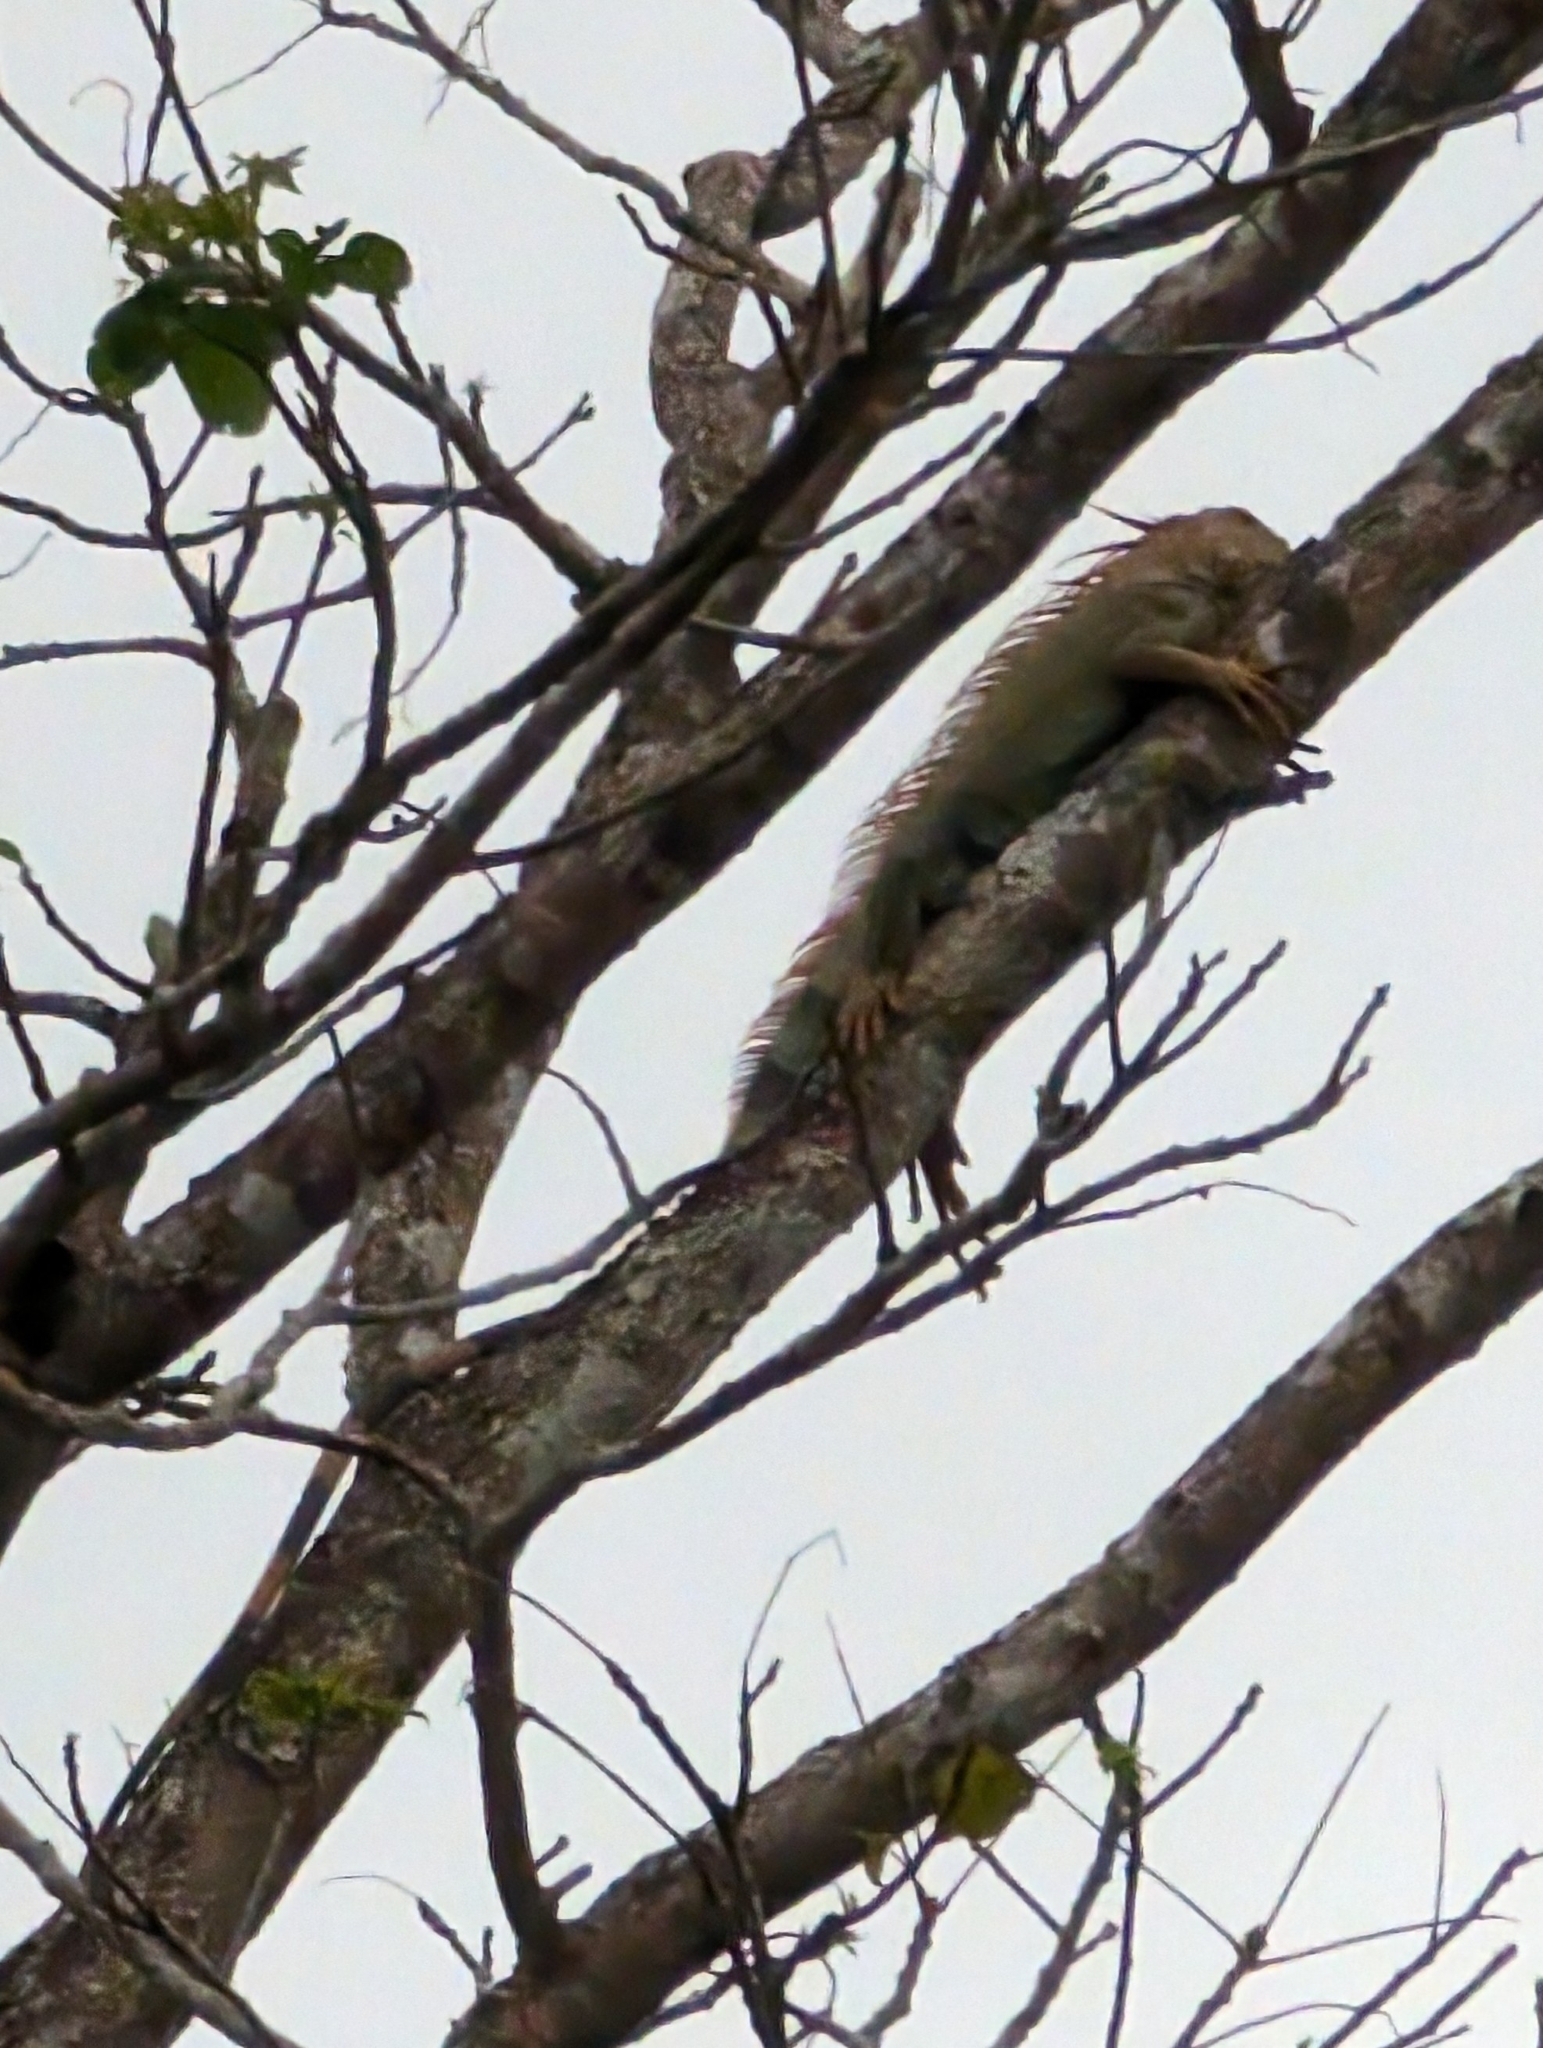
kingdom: Animalia
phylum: Chordata
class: Squamata
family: Iguanidae
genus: Iguana
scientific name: Iguana iguana
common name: Green iguana
